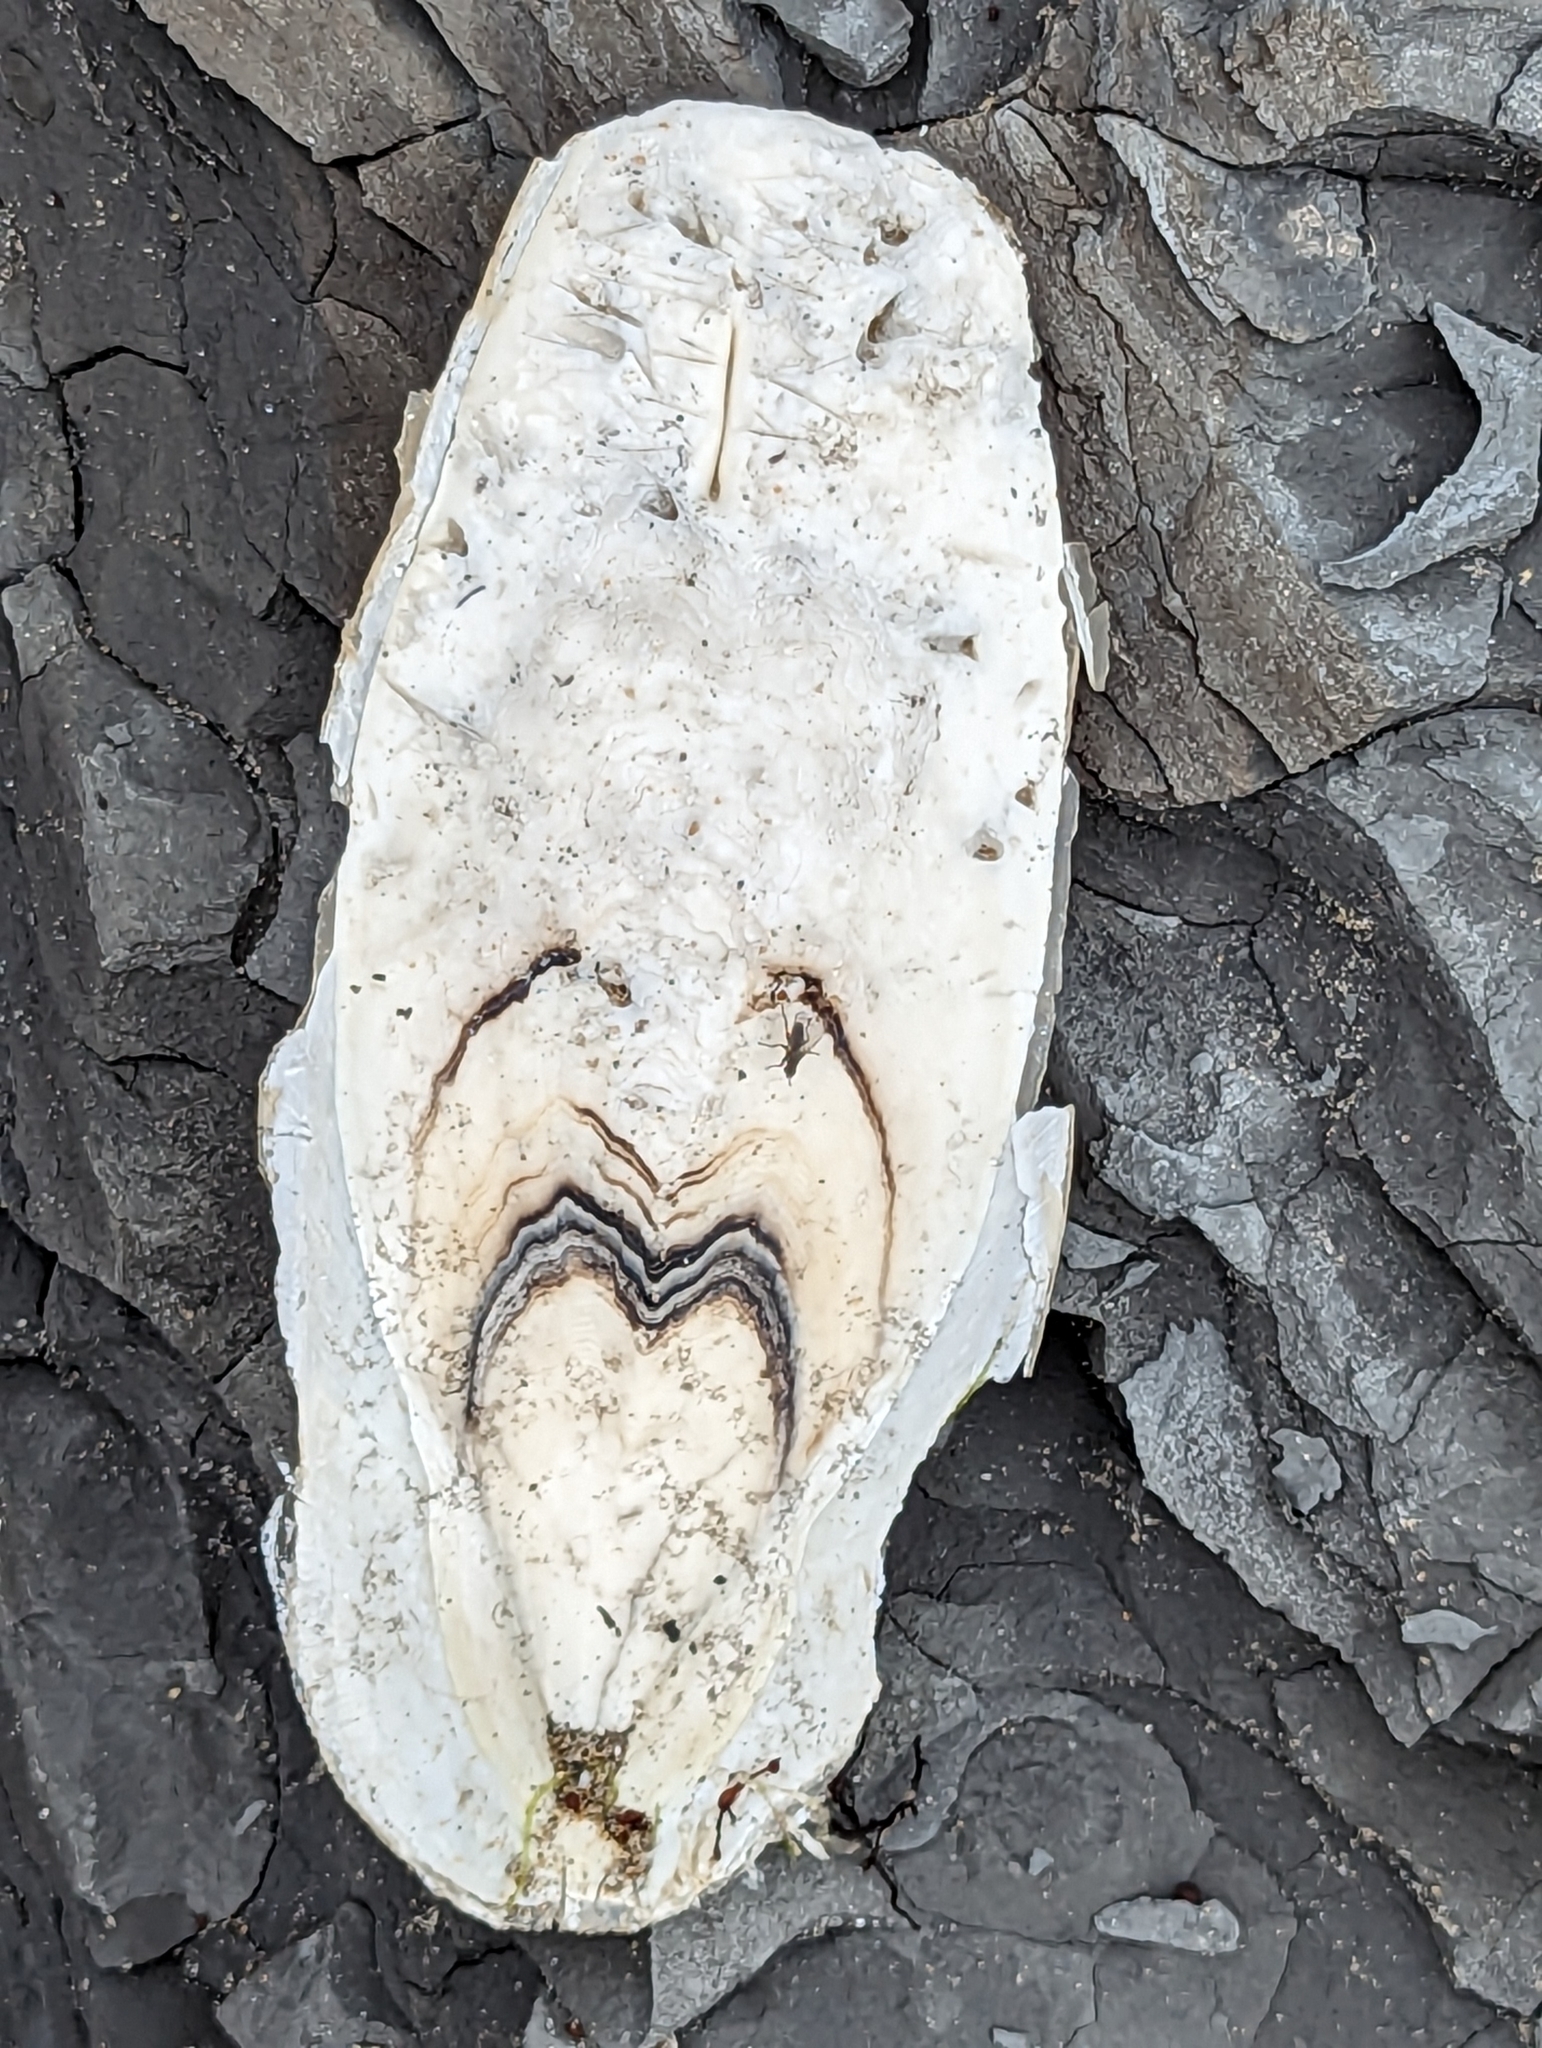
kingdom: Animalia
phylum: Mollusca
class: Cephalopoda
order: Sepiida
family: Sepiidae
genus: Sepia
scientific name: Sepia officinalis
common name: Common cuttlefish
